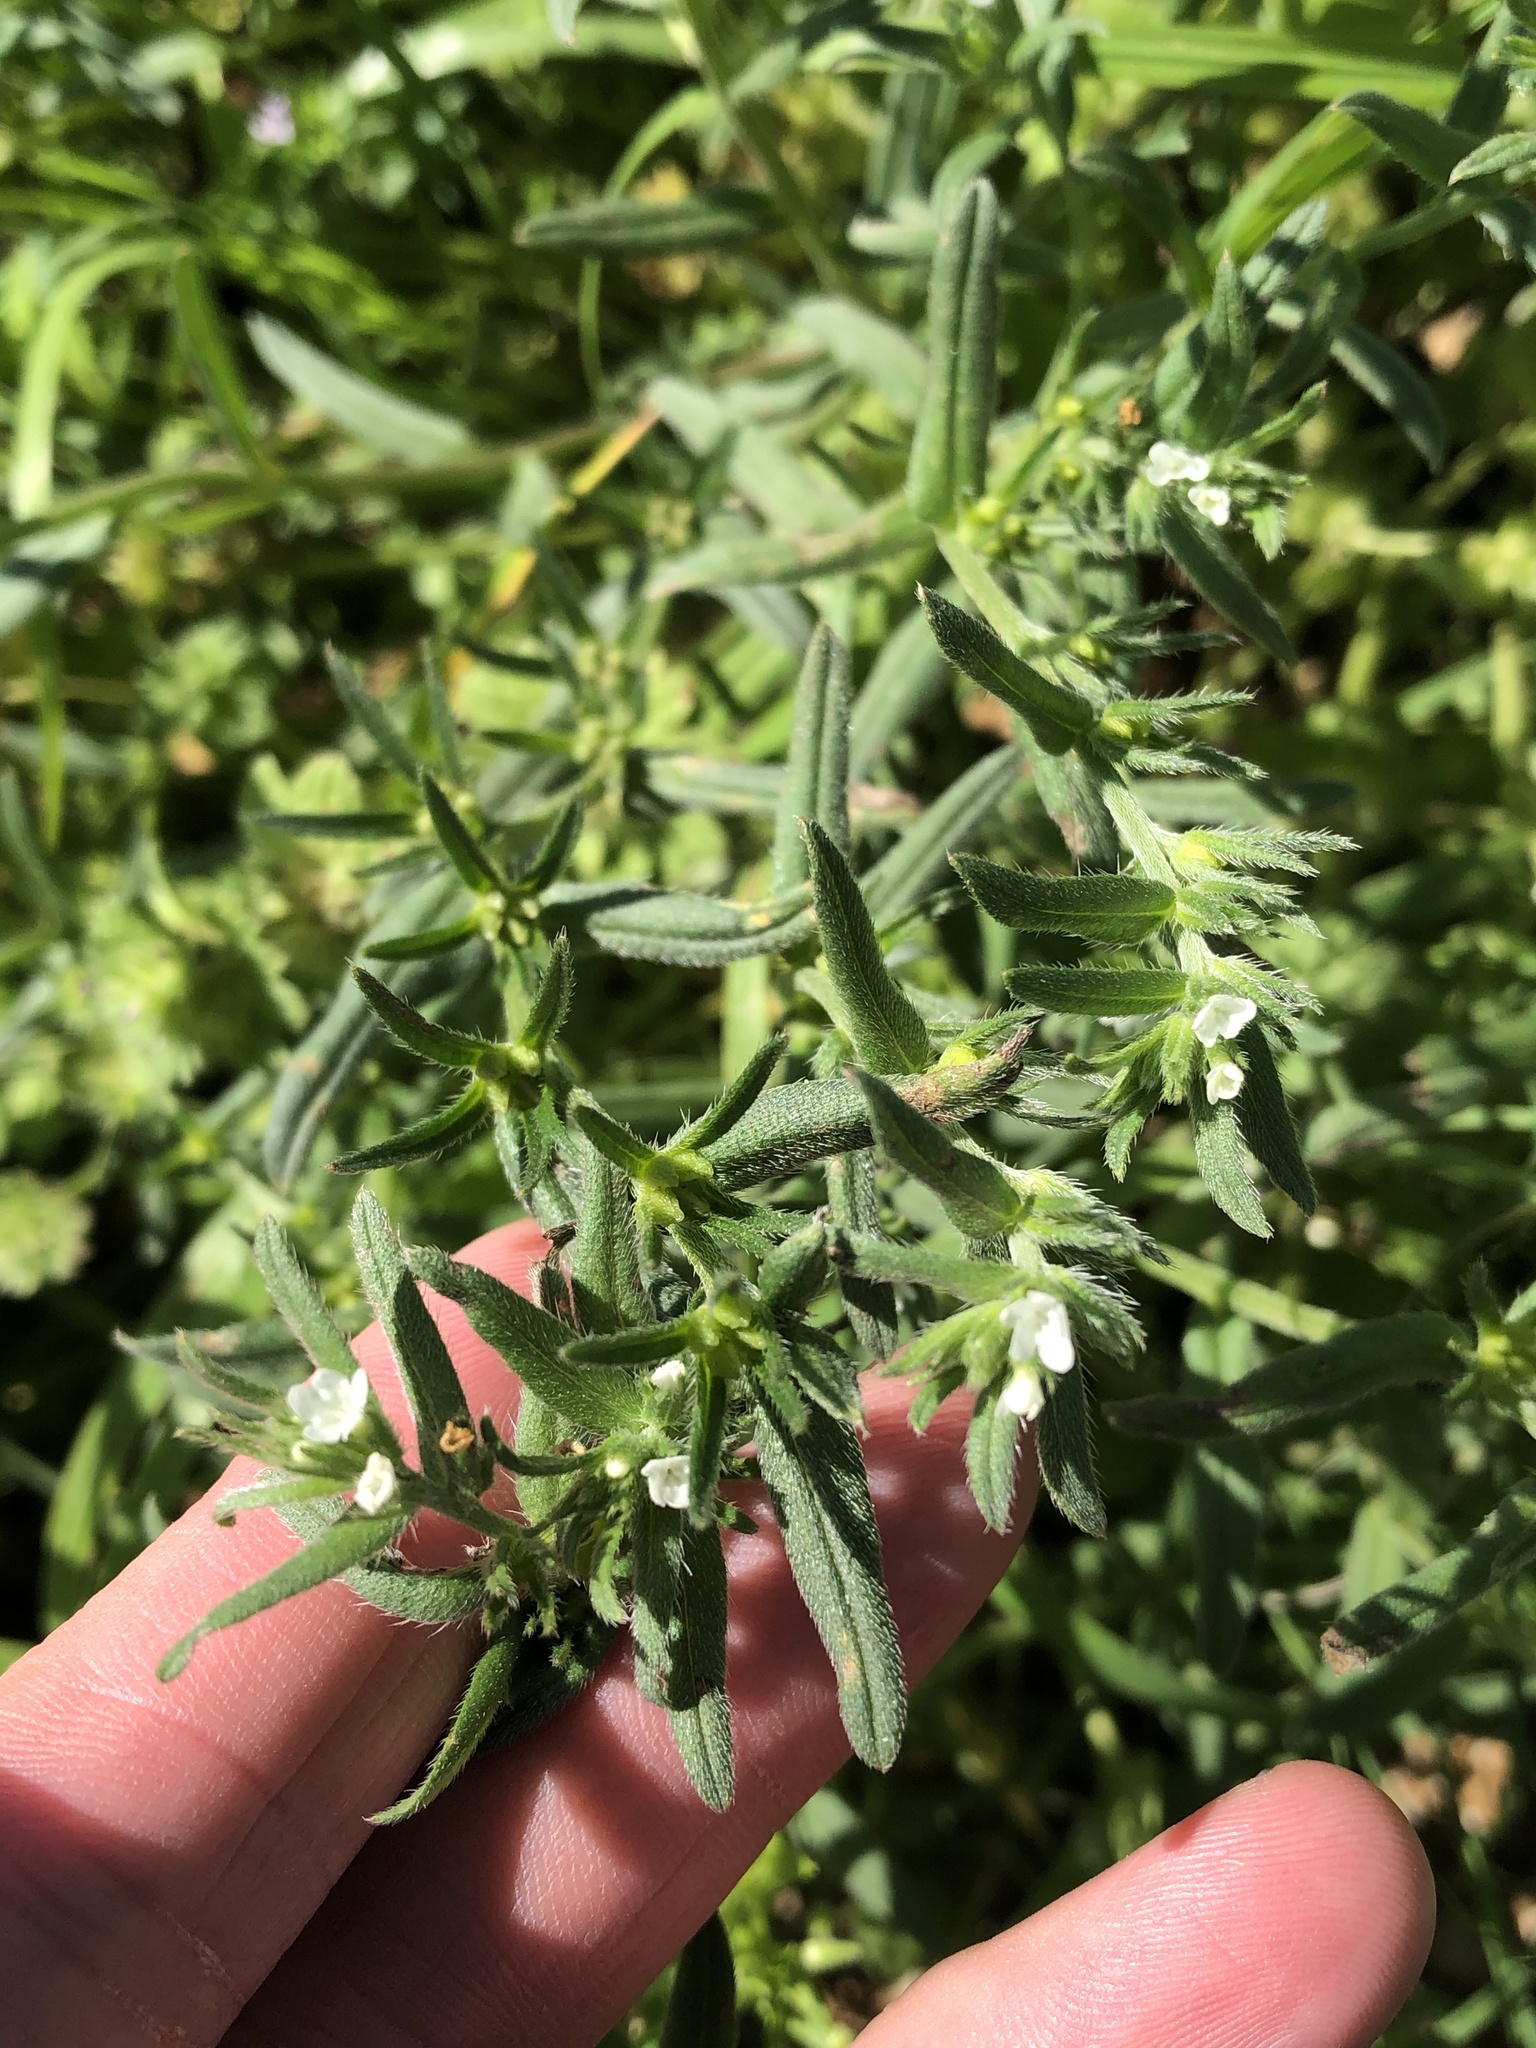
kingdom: Plantae
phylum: Tracheophyta
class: Magnoliopsida
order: Boraginales
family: Boraginaceae
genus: Buglossoides
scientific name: Buglossoides arvensis
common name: Corn gromwell
